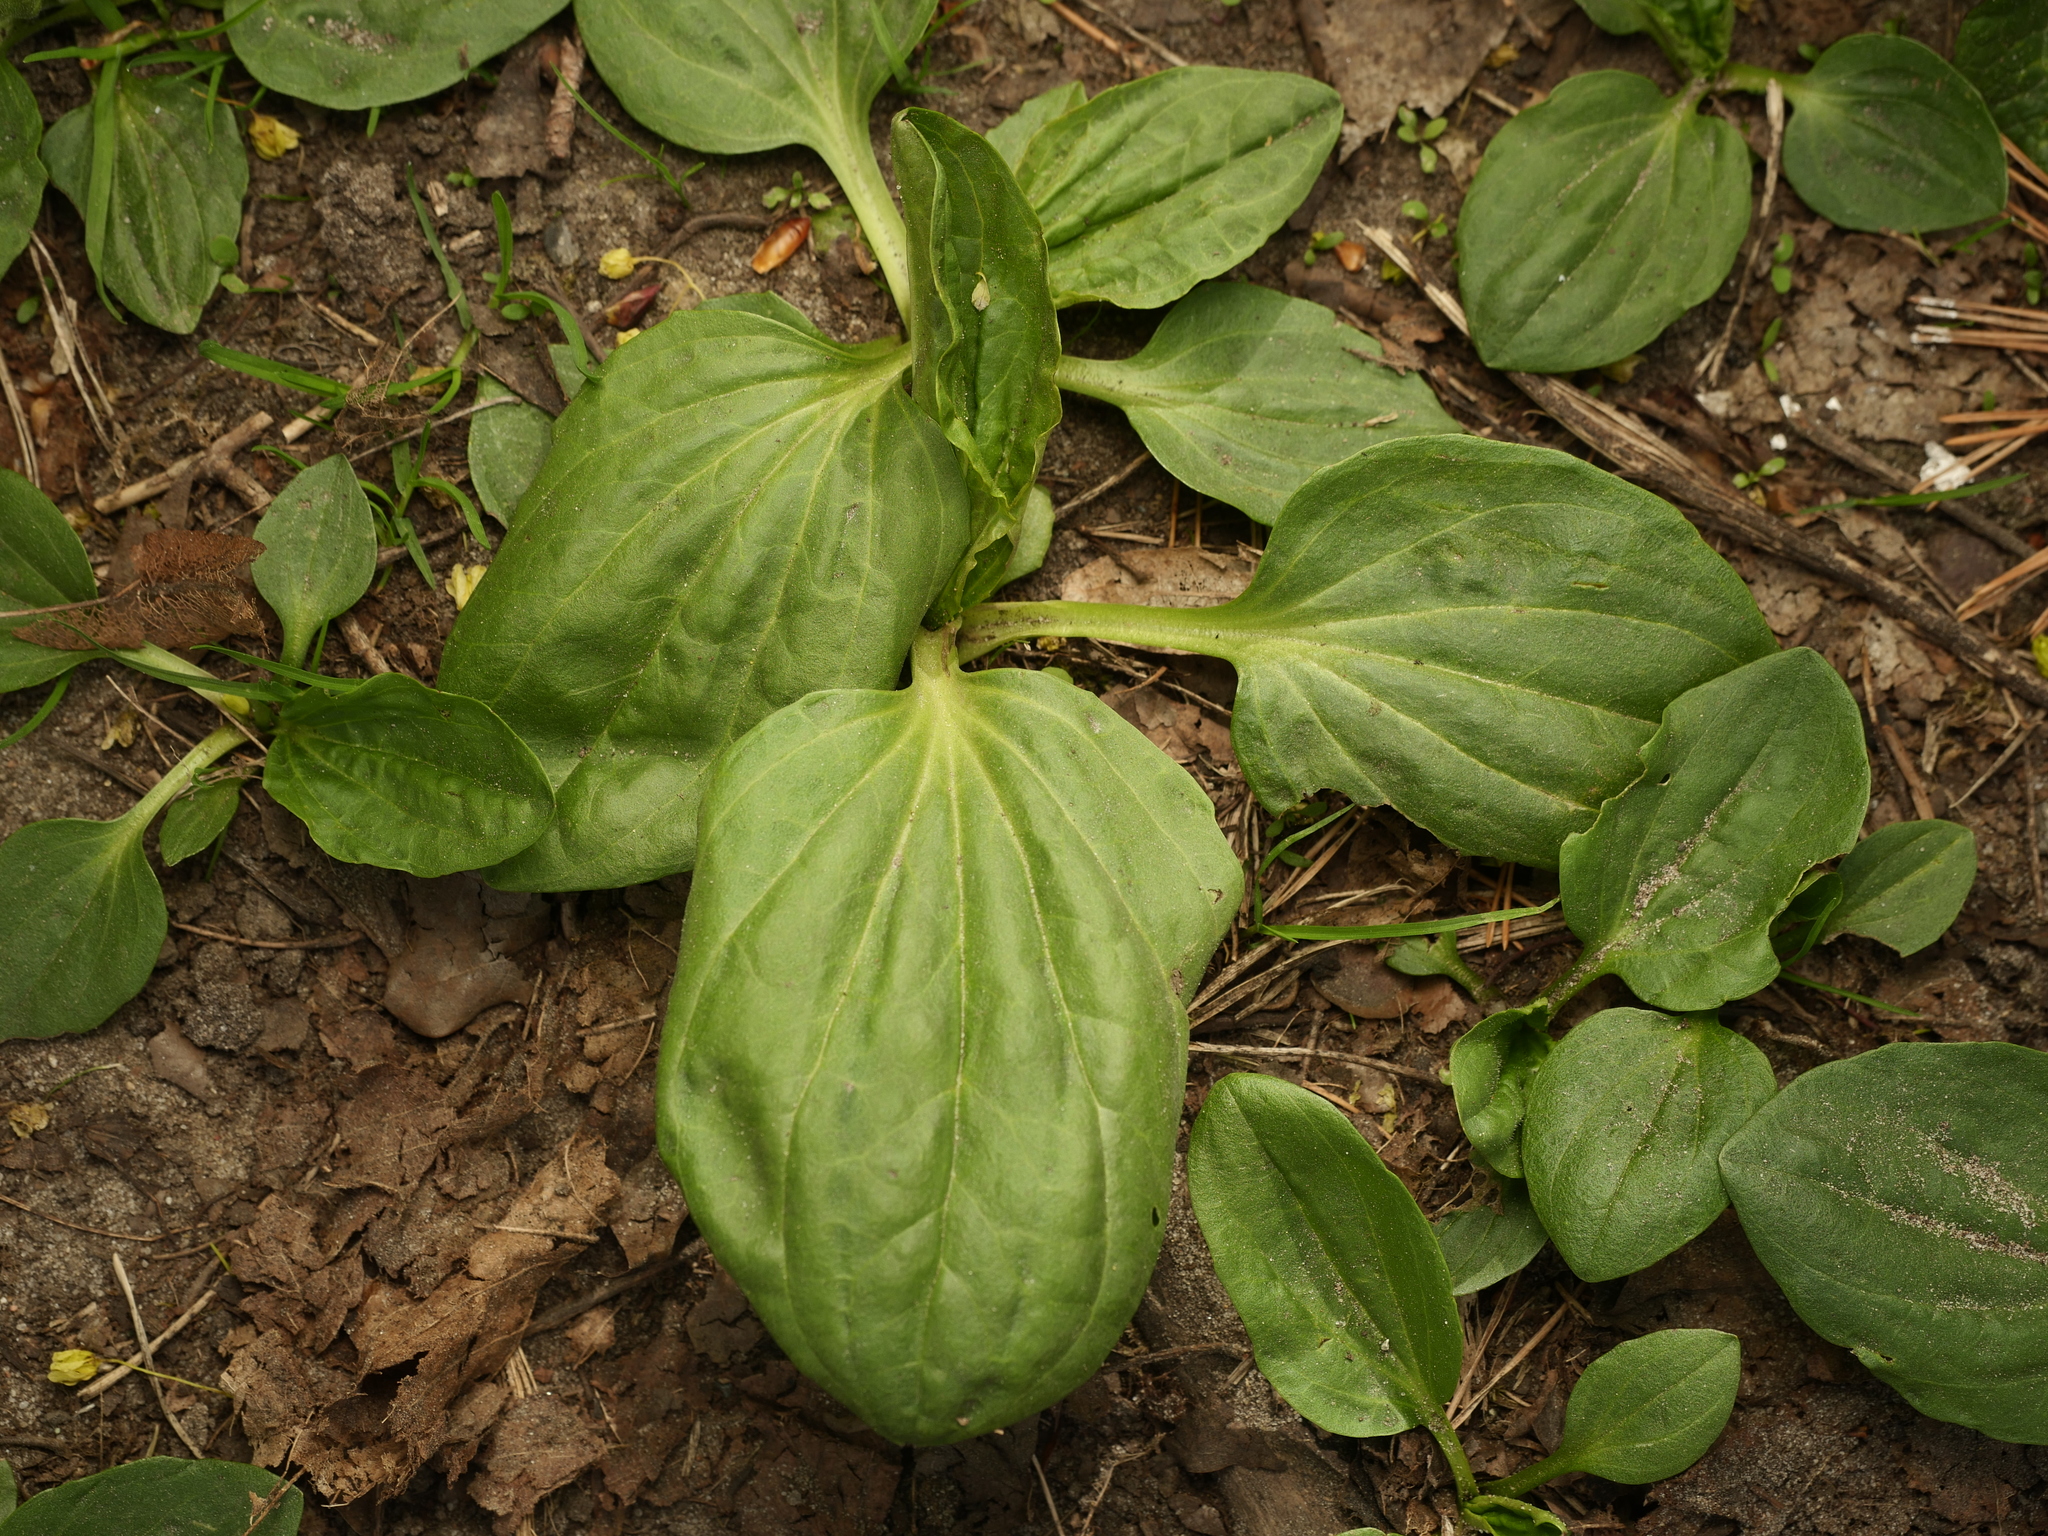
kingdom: Plantae
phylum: Tracheophyta
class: Magnoliopsida
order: Lamiales
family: Plantaginaceae
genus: Plantago
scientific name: Plantago major
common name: Common plantain
